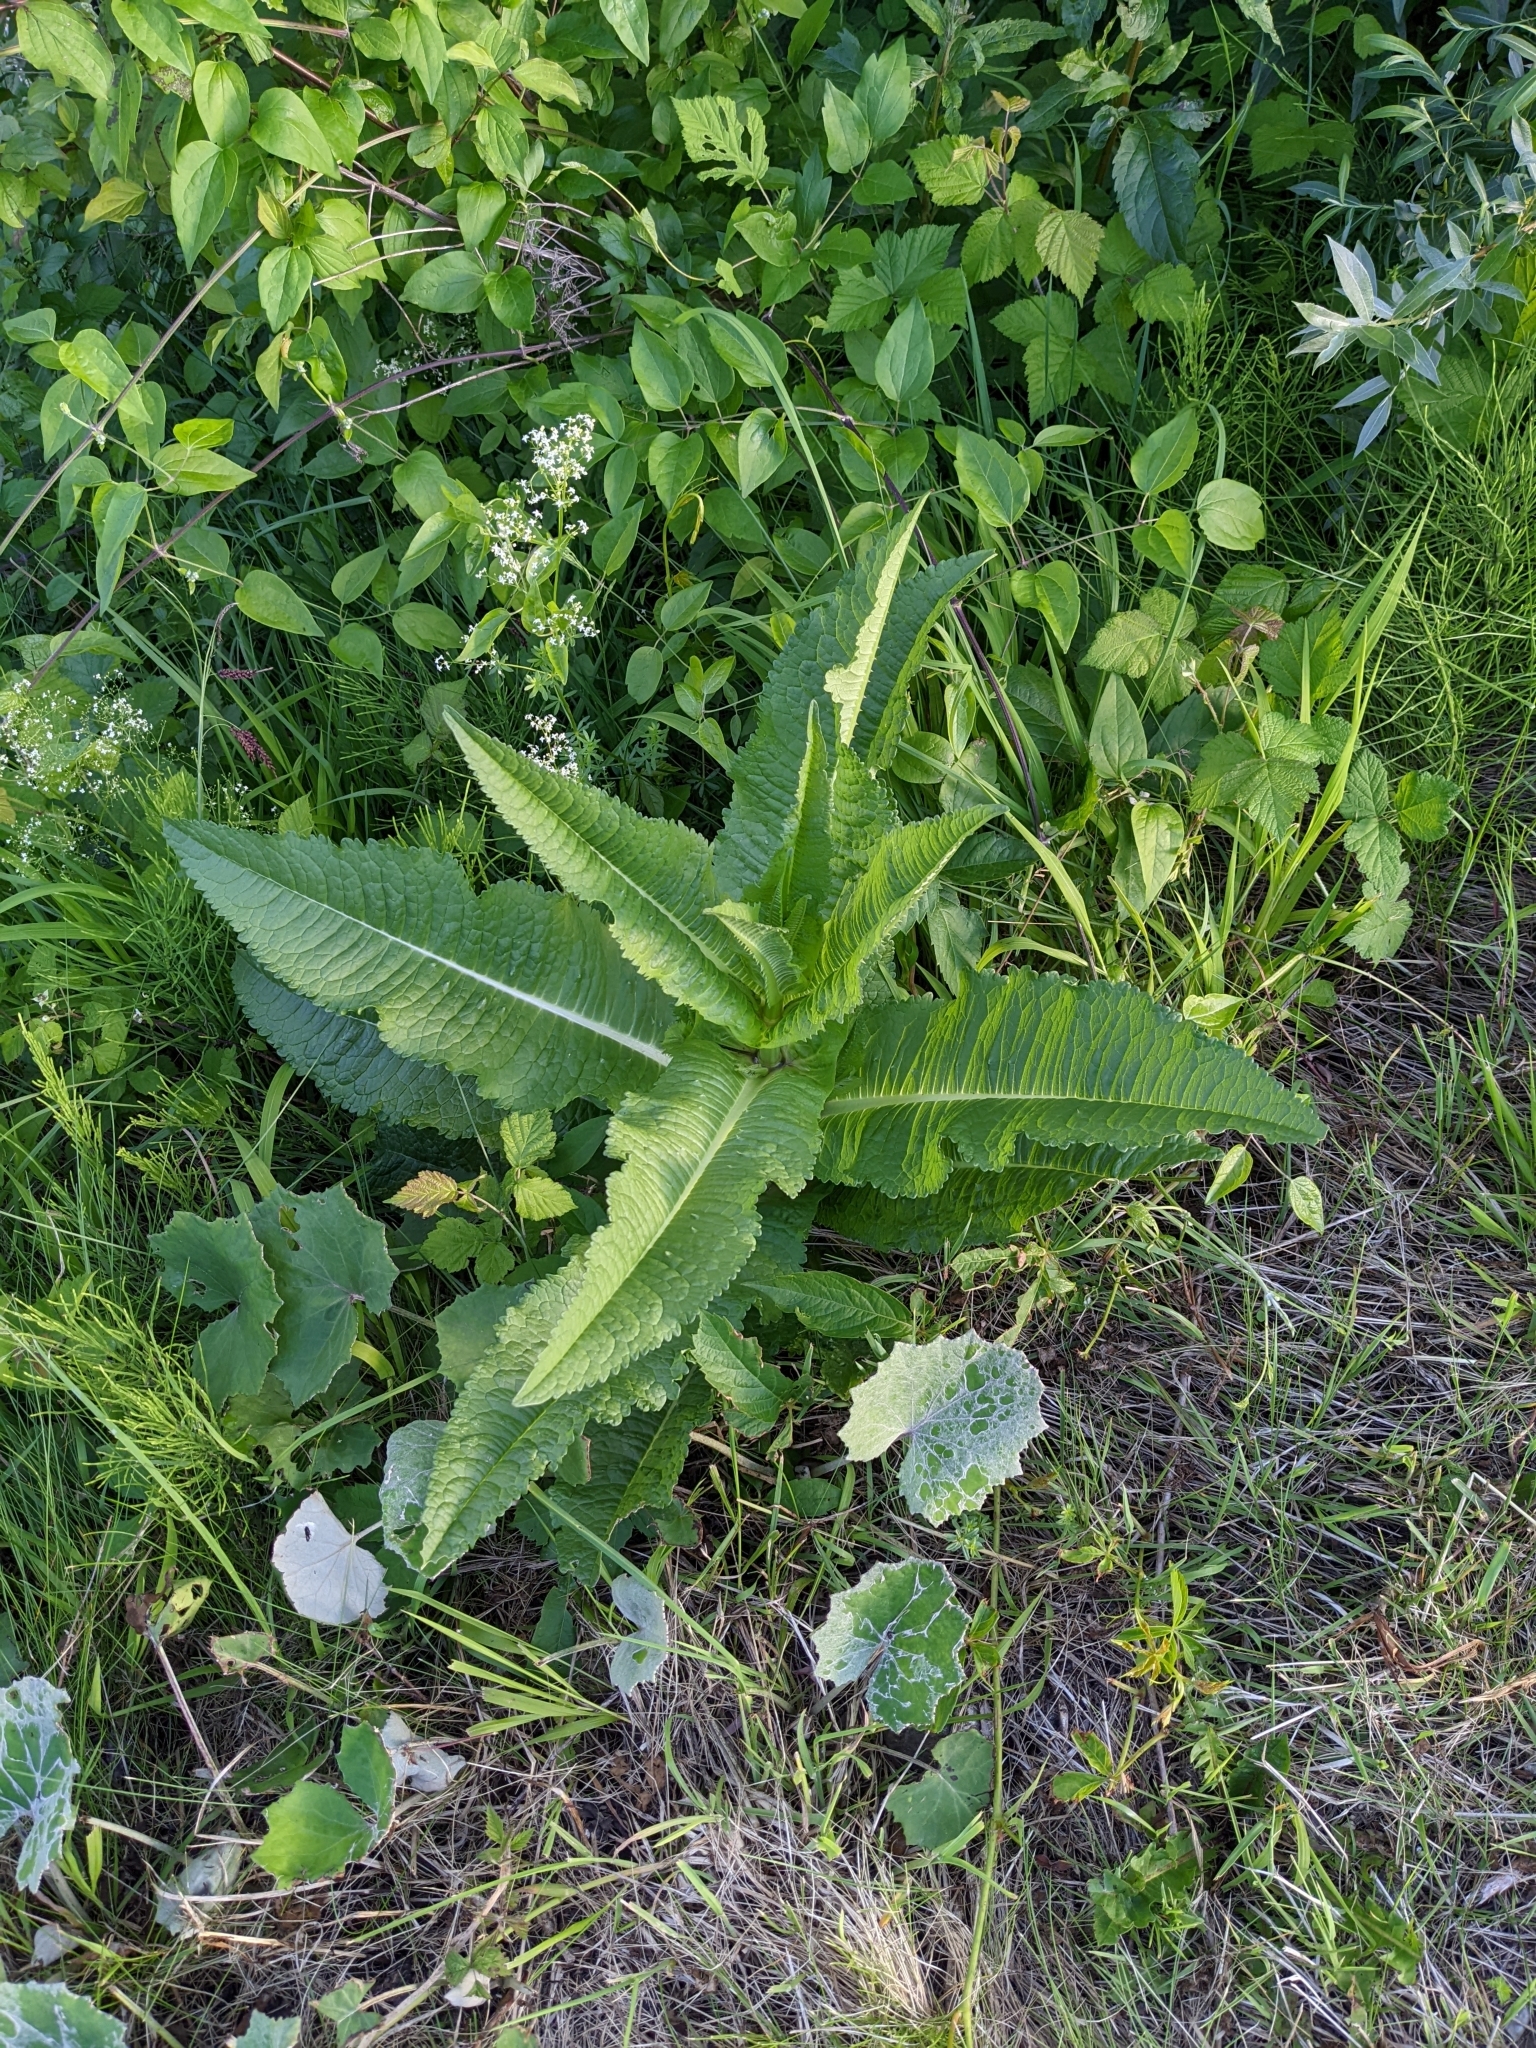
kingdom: Plantae
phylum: Tracheophyta
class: Magnoliopsida
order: Dipsacales
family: Caprifoliaceae
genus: Dipsacus
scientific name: Dipsacus fullonum
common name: Teasel
